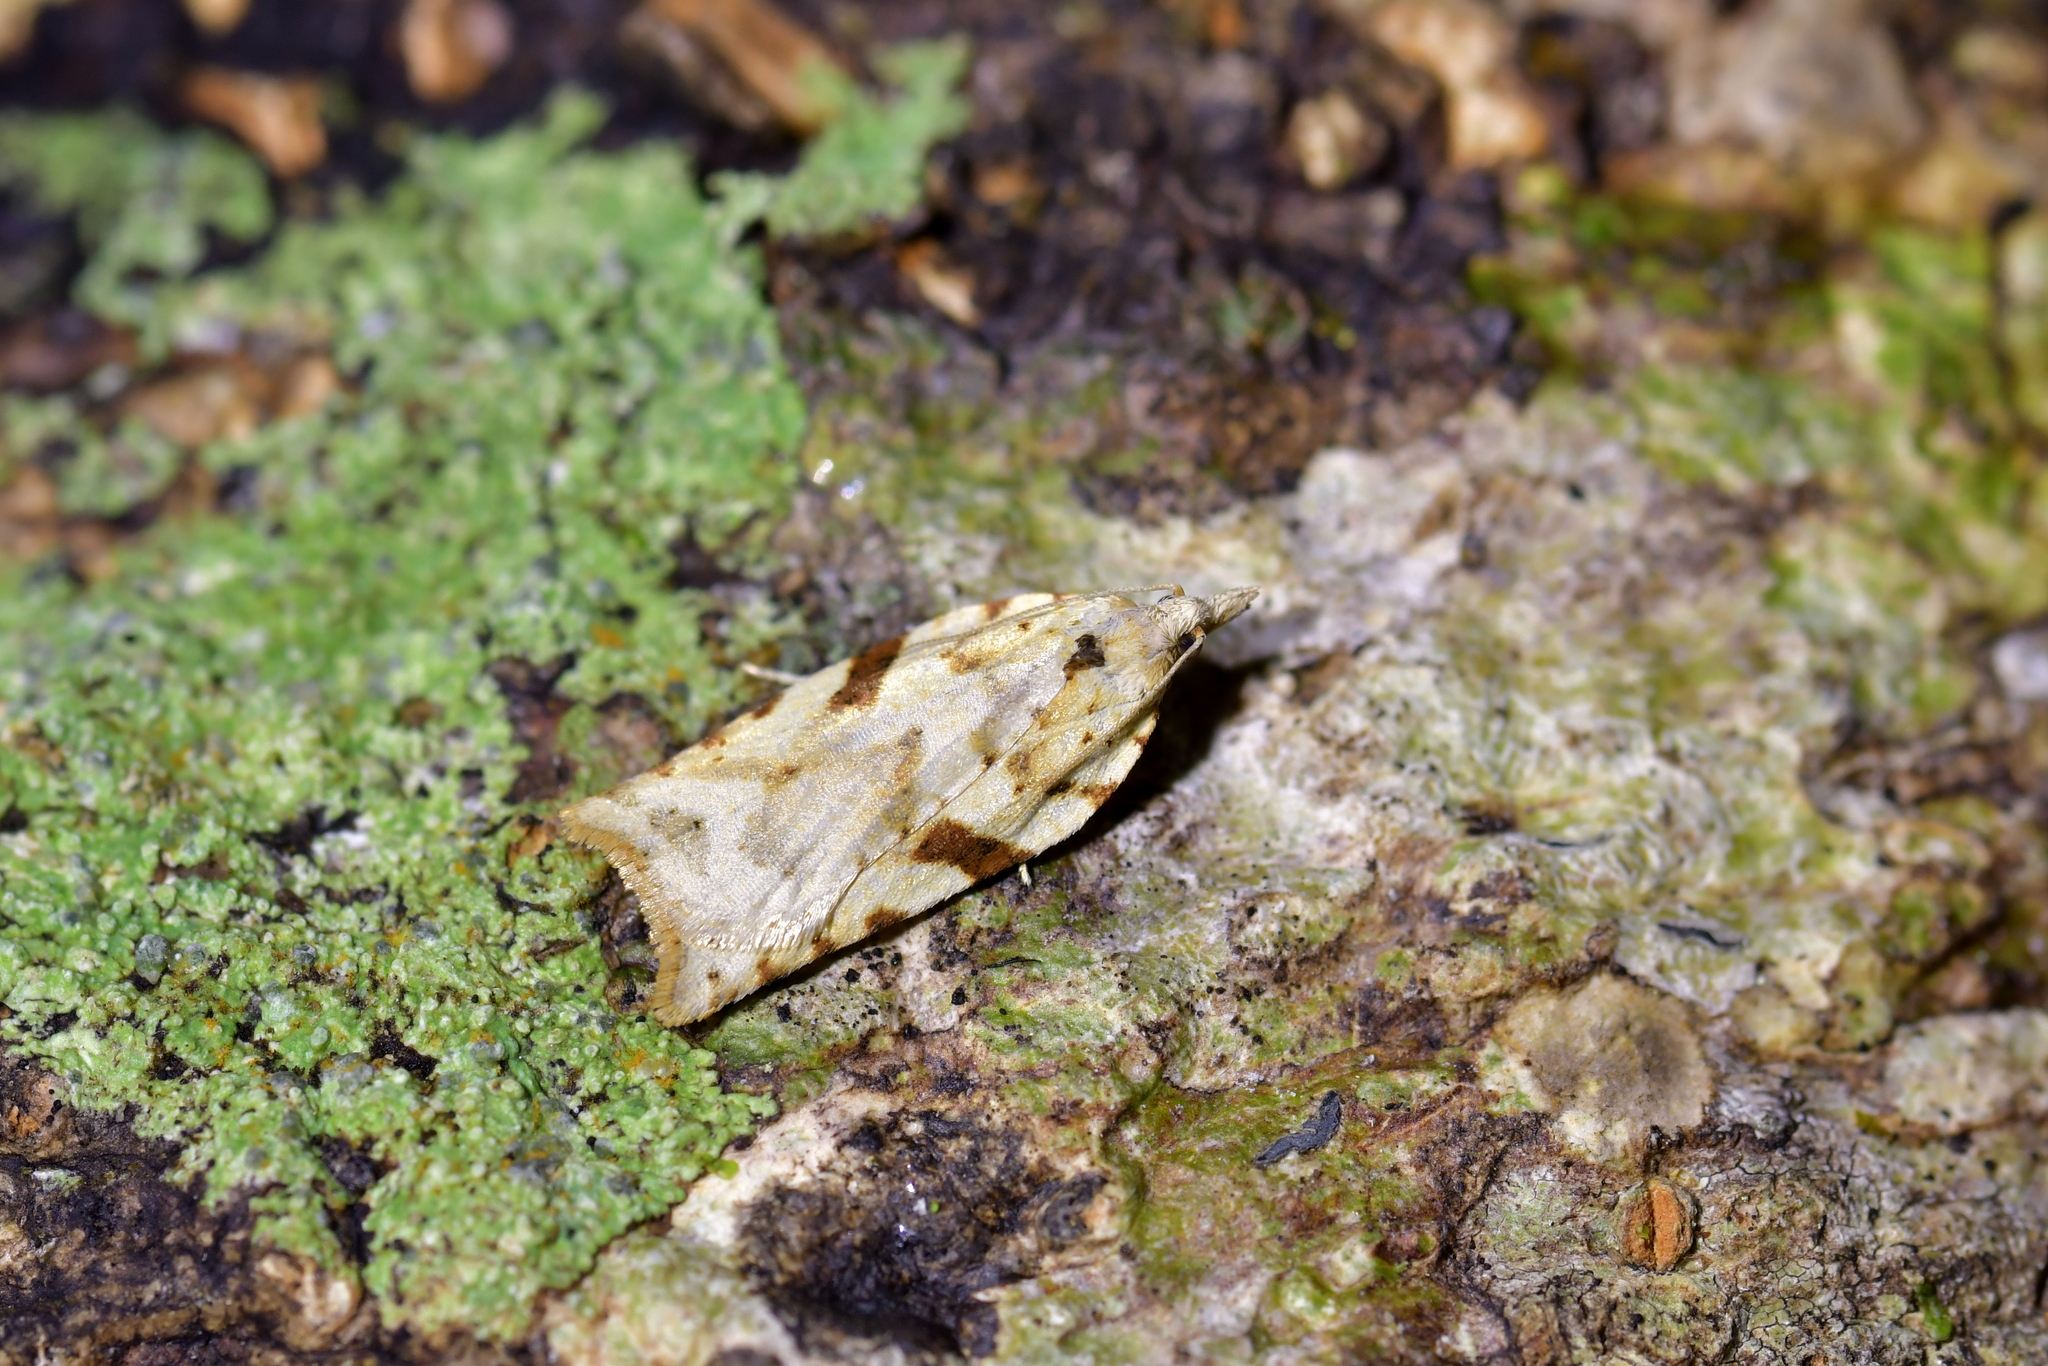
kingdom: Animalia
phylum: Arthropoda
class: Insecta
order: Lepidoptera
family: Tortricidae
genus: Leucotenes
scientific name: Leucotenes coprosmae
